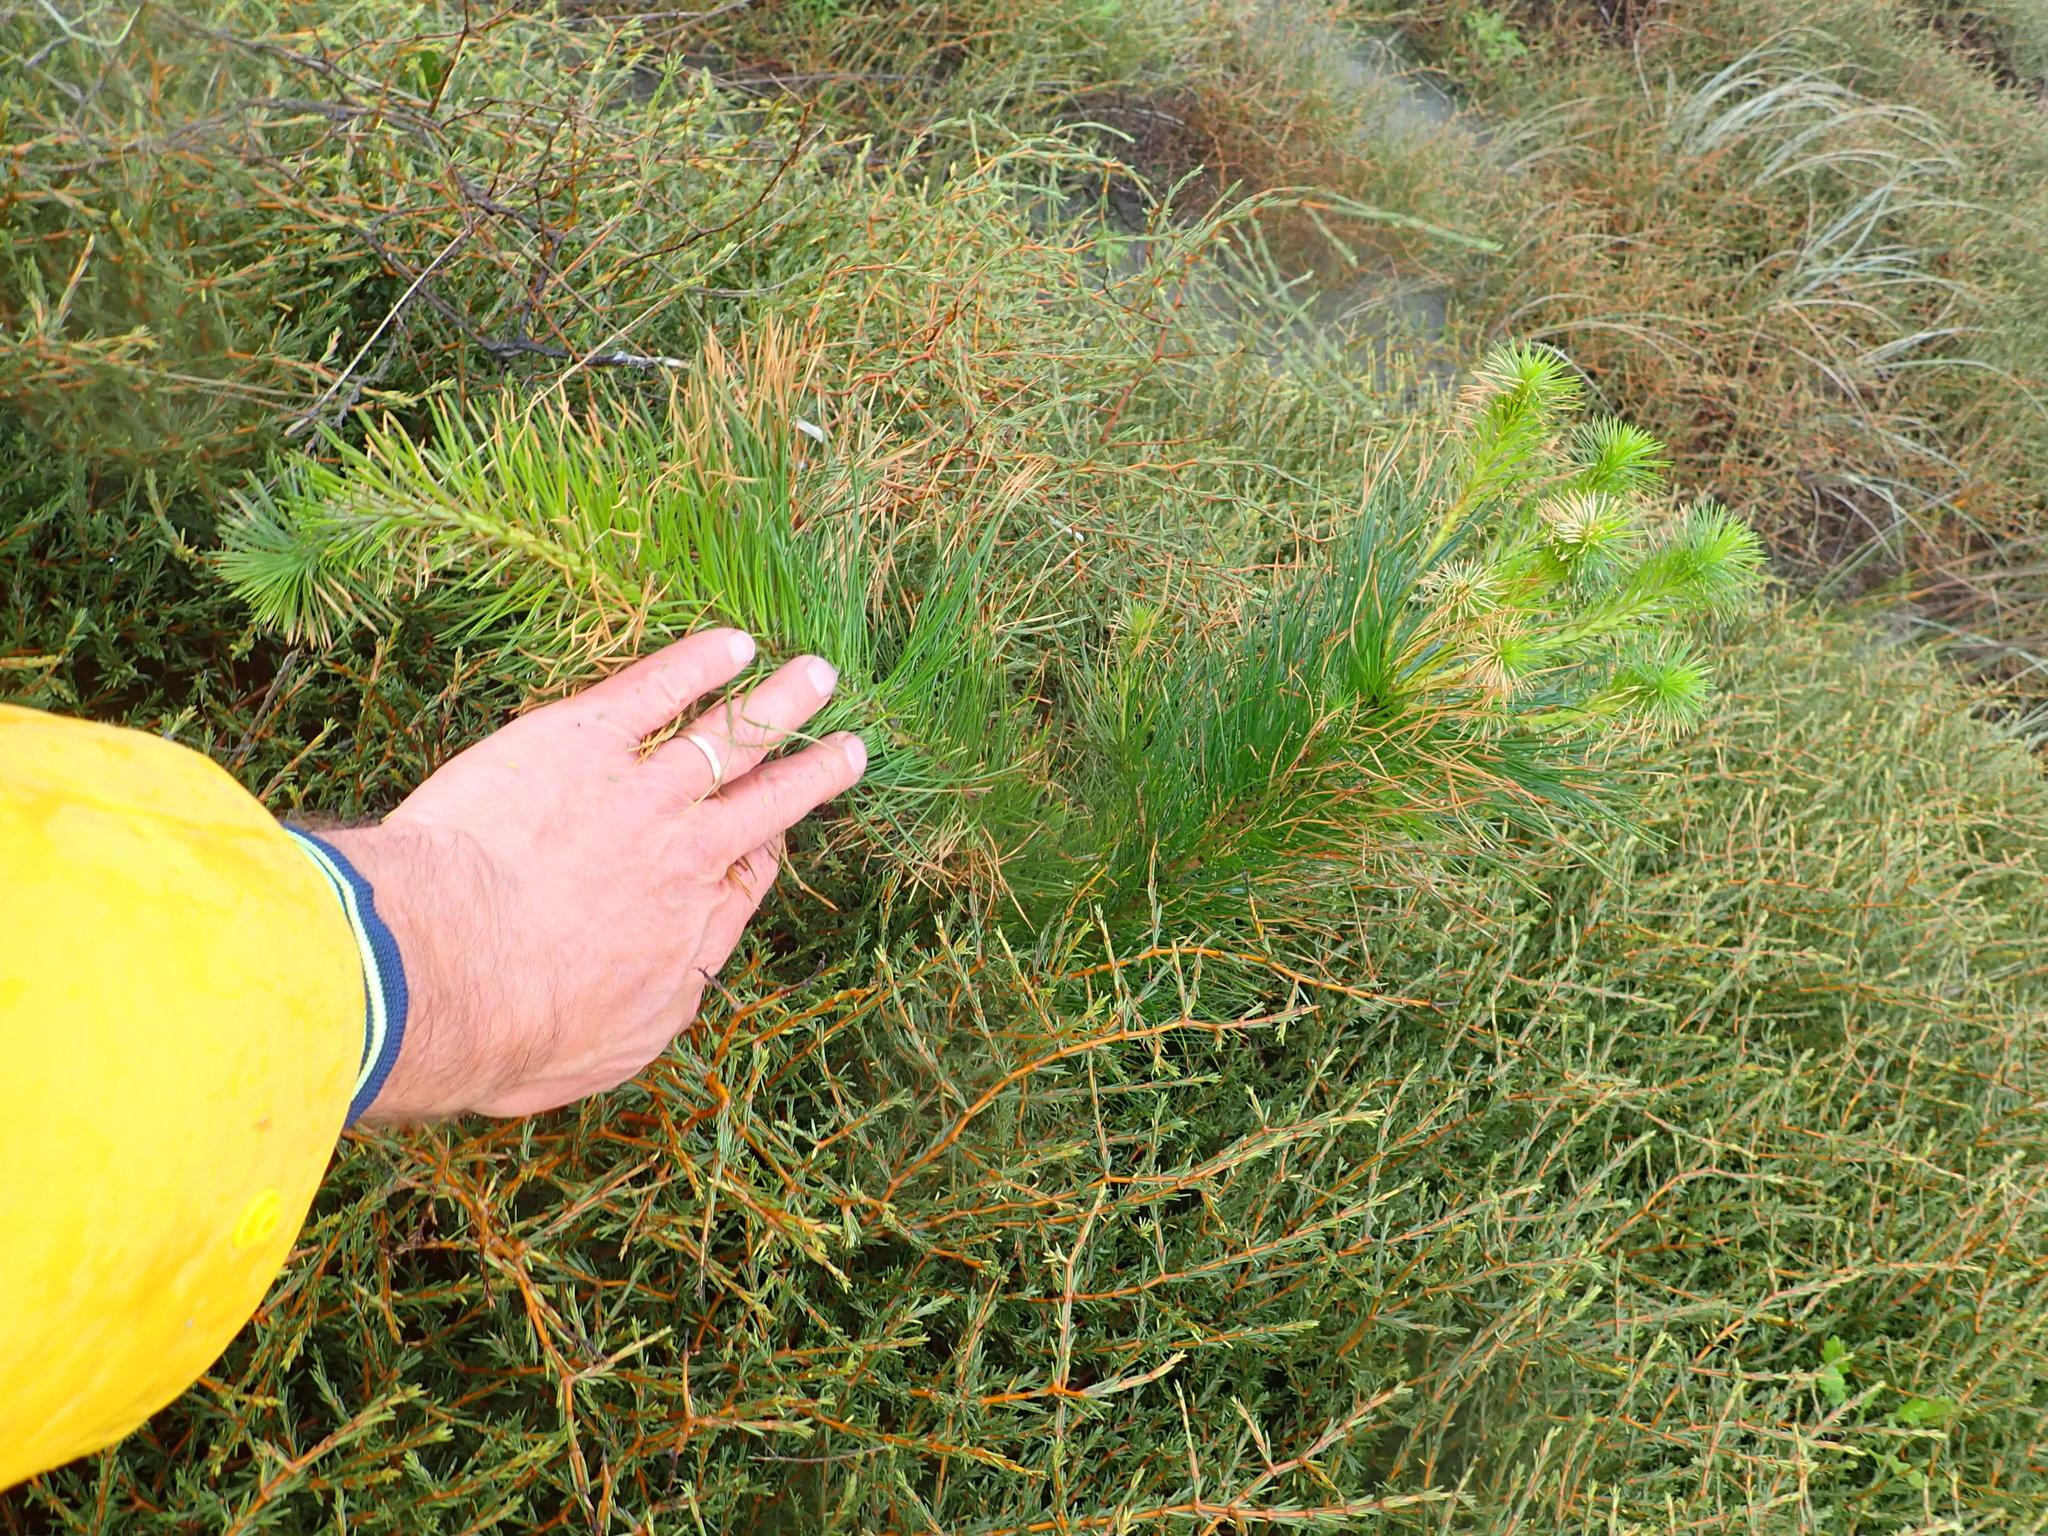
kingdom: Plantae
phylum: Tracheophyta
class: Pinopsida
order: Pinales
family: Pinaceae
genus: Pinus
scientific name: Pinus radiata
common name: Monterey pine
